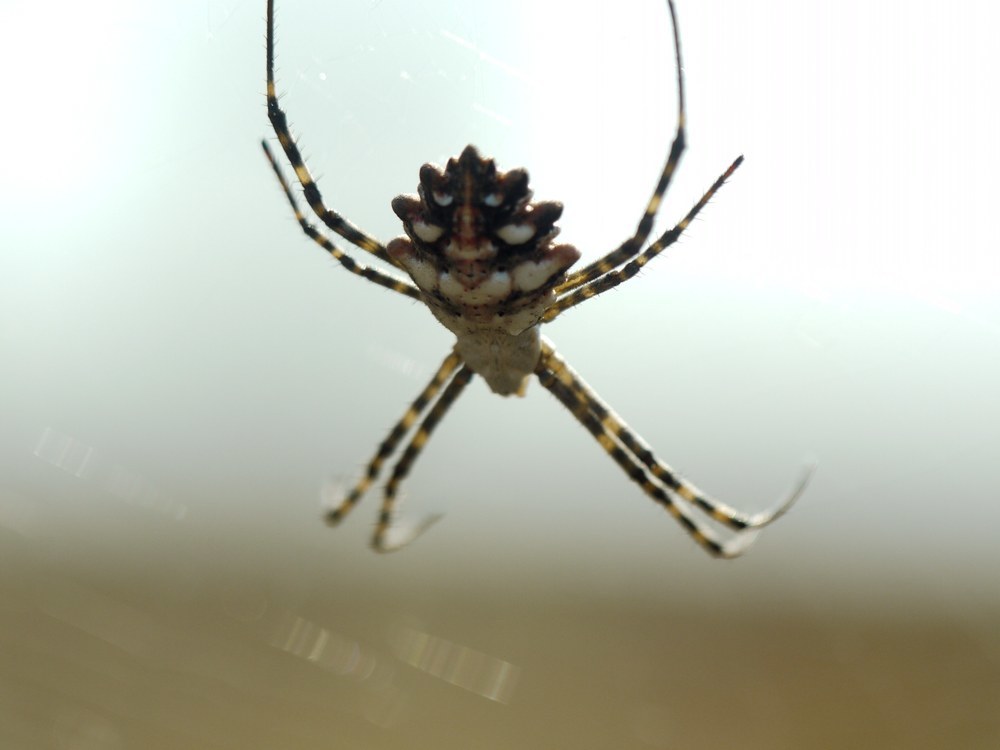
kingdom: Animalia
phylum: Arthropoda
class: Arachnida
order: Araneae
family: Araneidae
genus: Argiope
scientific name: Argiope lobata
